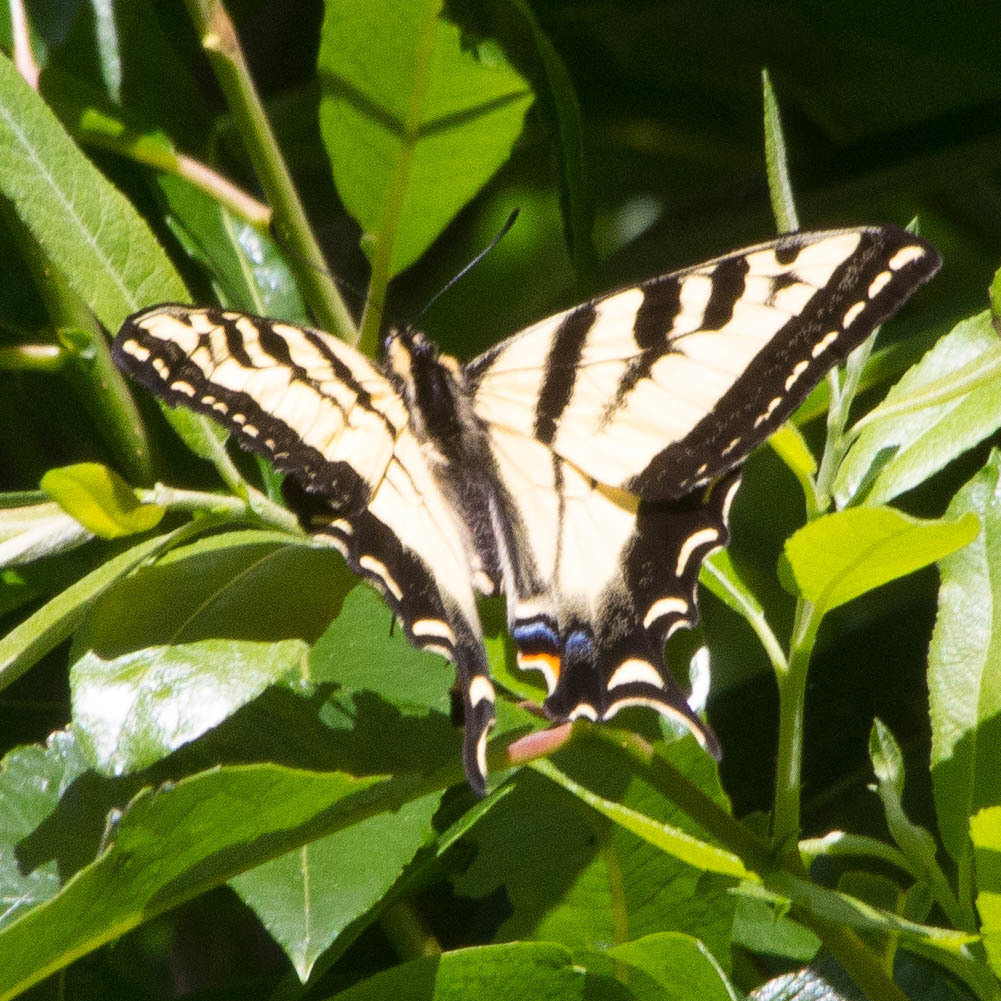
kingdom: Animalia
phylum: Arthropoda
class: Insecta
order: Lepidoptera
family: Papilionidae
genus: Papilio
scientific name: Papilio rutulus
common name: Western tiger swallowtail
